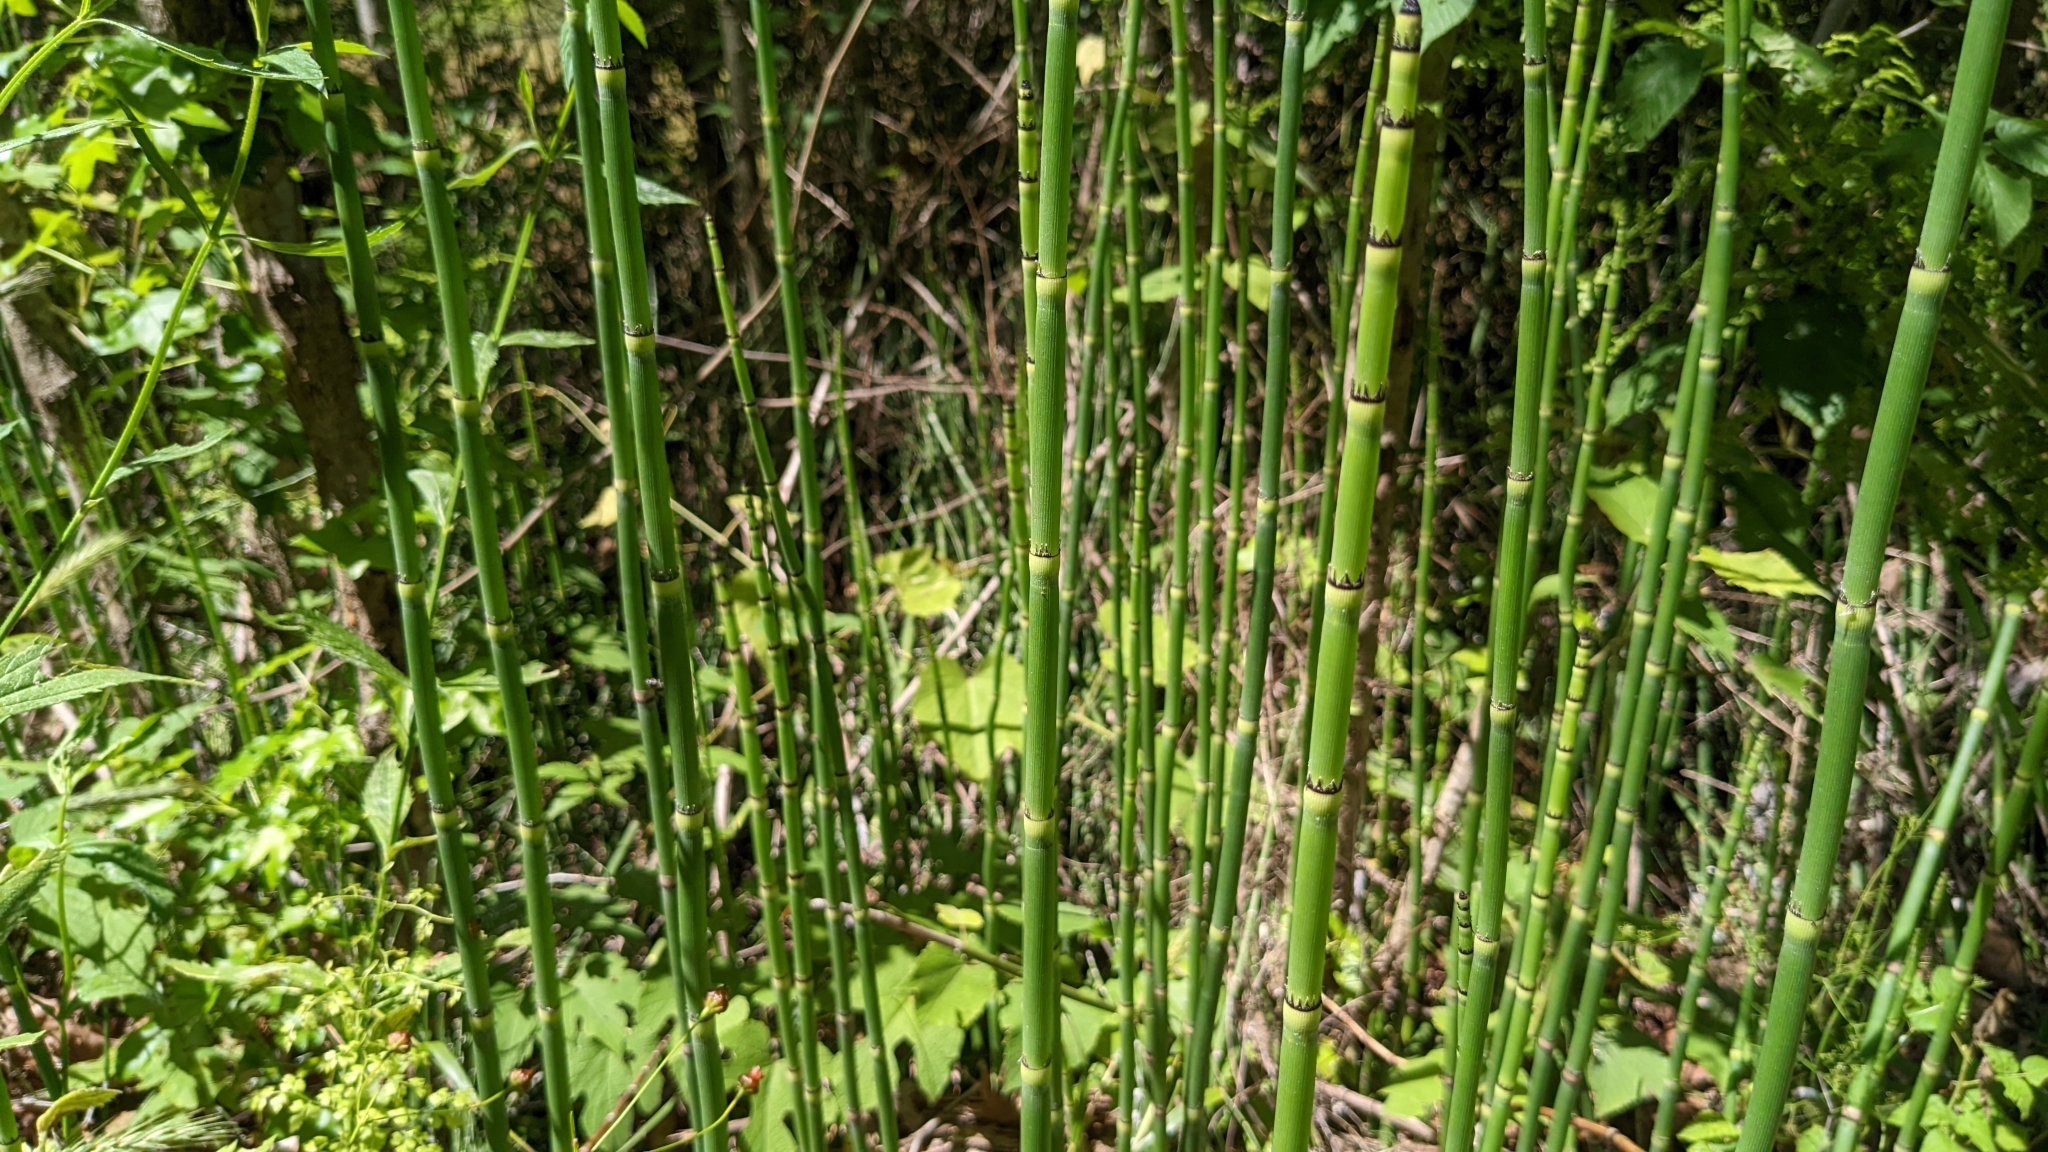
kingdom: Plantae
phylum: Tracheophyta
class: Polypodiopsida
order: Equisetales
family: Equisetaceae
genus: Equisetum
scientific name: Equisetum hyemale
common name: Rough horsetail
